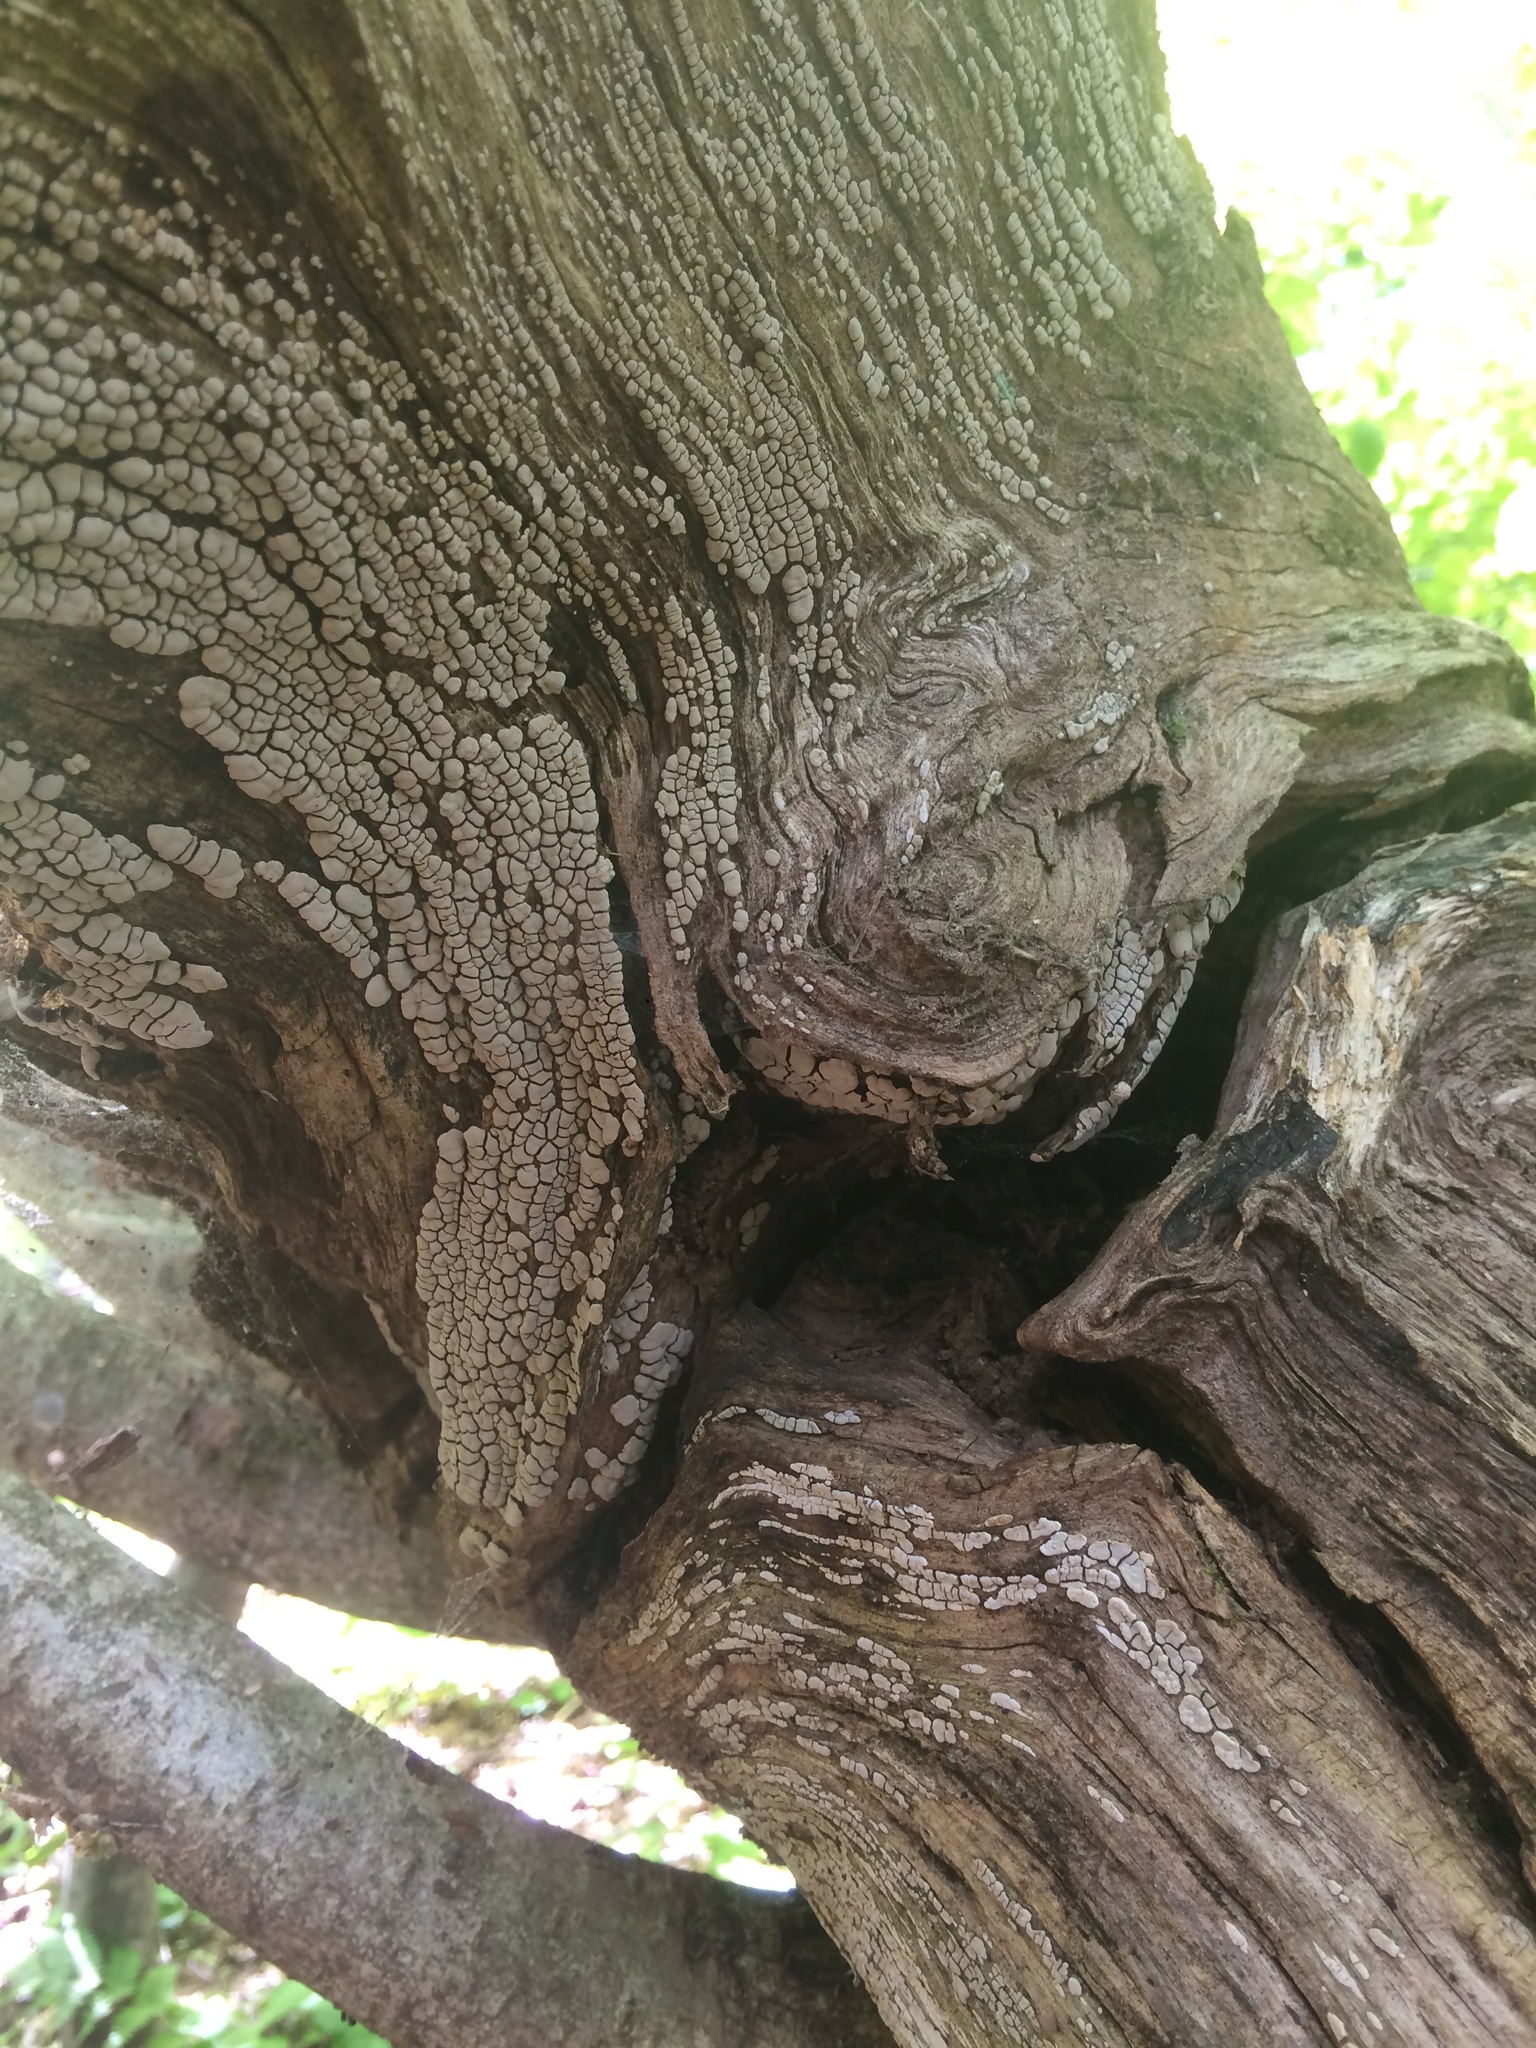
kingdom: Fungi
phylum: Basidiomycota
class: Agaricomycetes
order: Russulales
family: Stereaceae
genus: Xylobolus
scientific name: Xylobolus frustulatus
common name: Ceramic parchment
